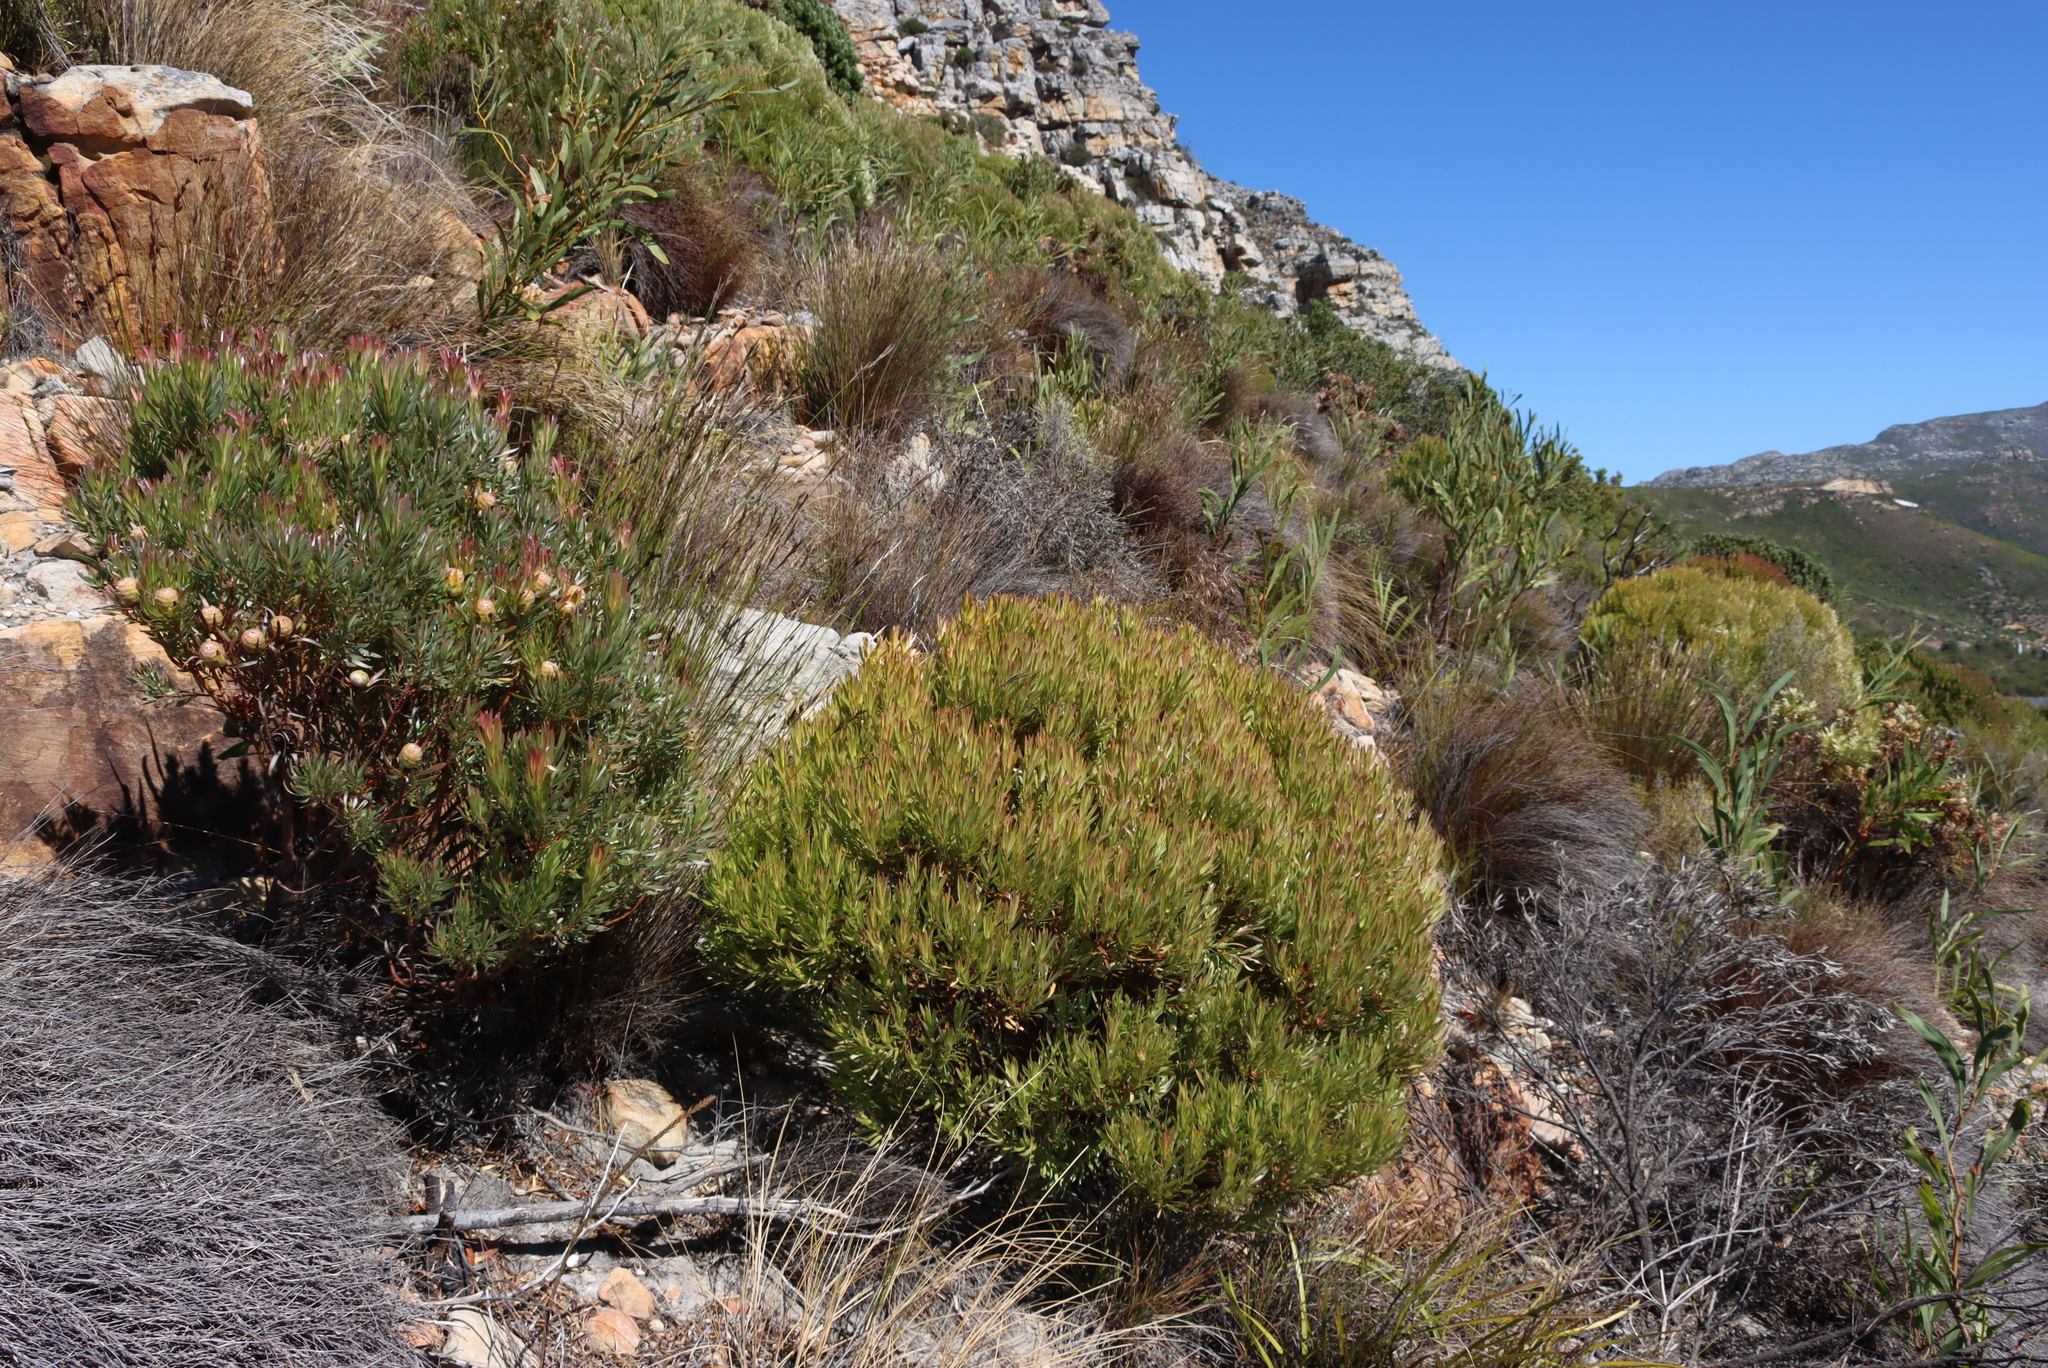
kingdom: Plantae
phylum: Tracheophyta
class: Magnoliopsida
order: Proteales
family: Proteaceae
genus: Leucadendron
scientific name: Leucadendron xanthoconus
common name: Sickle-leaf conebush
